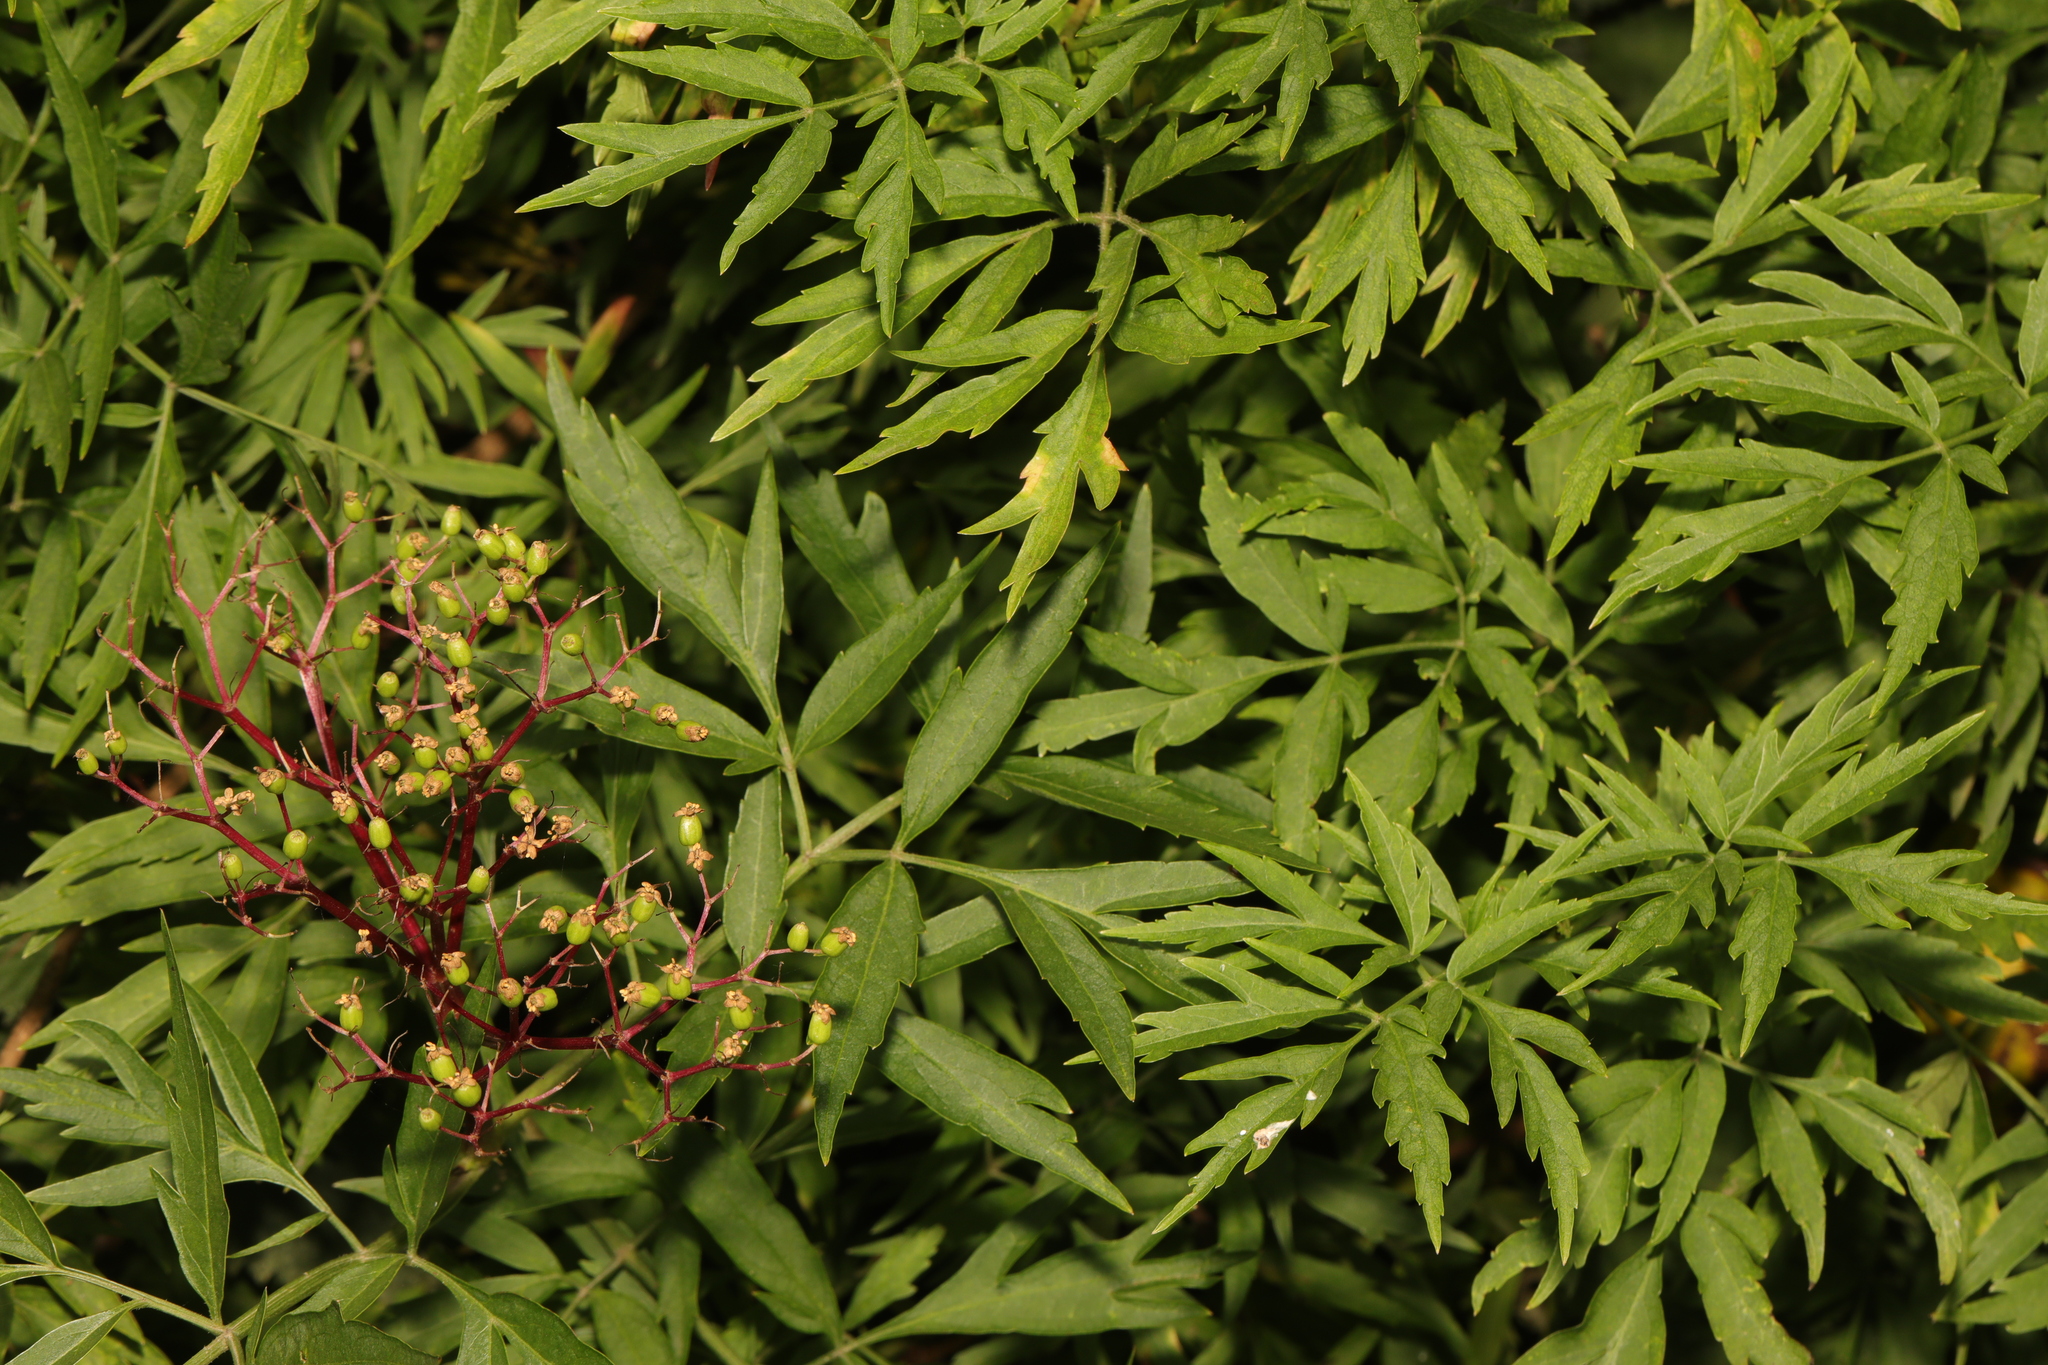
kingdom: Plantae
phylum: Tracheophyta
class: Magnoliopsida
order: Dipsacales
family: Viburnaceae
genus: Sambucus
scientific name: Sambucus nigra
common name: Elder
